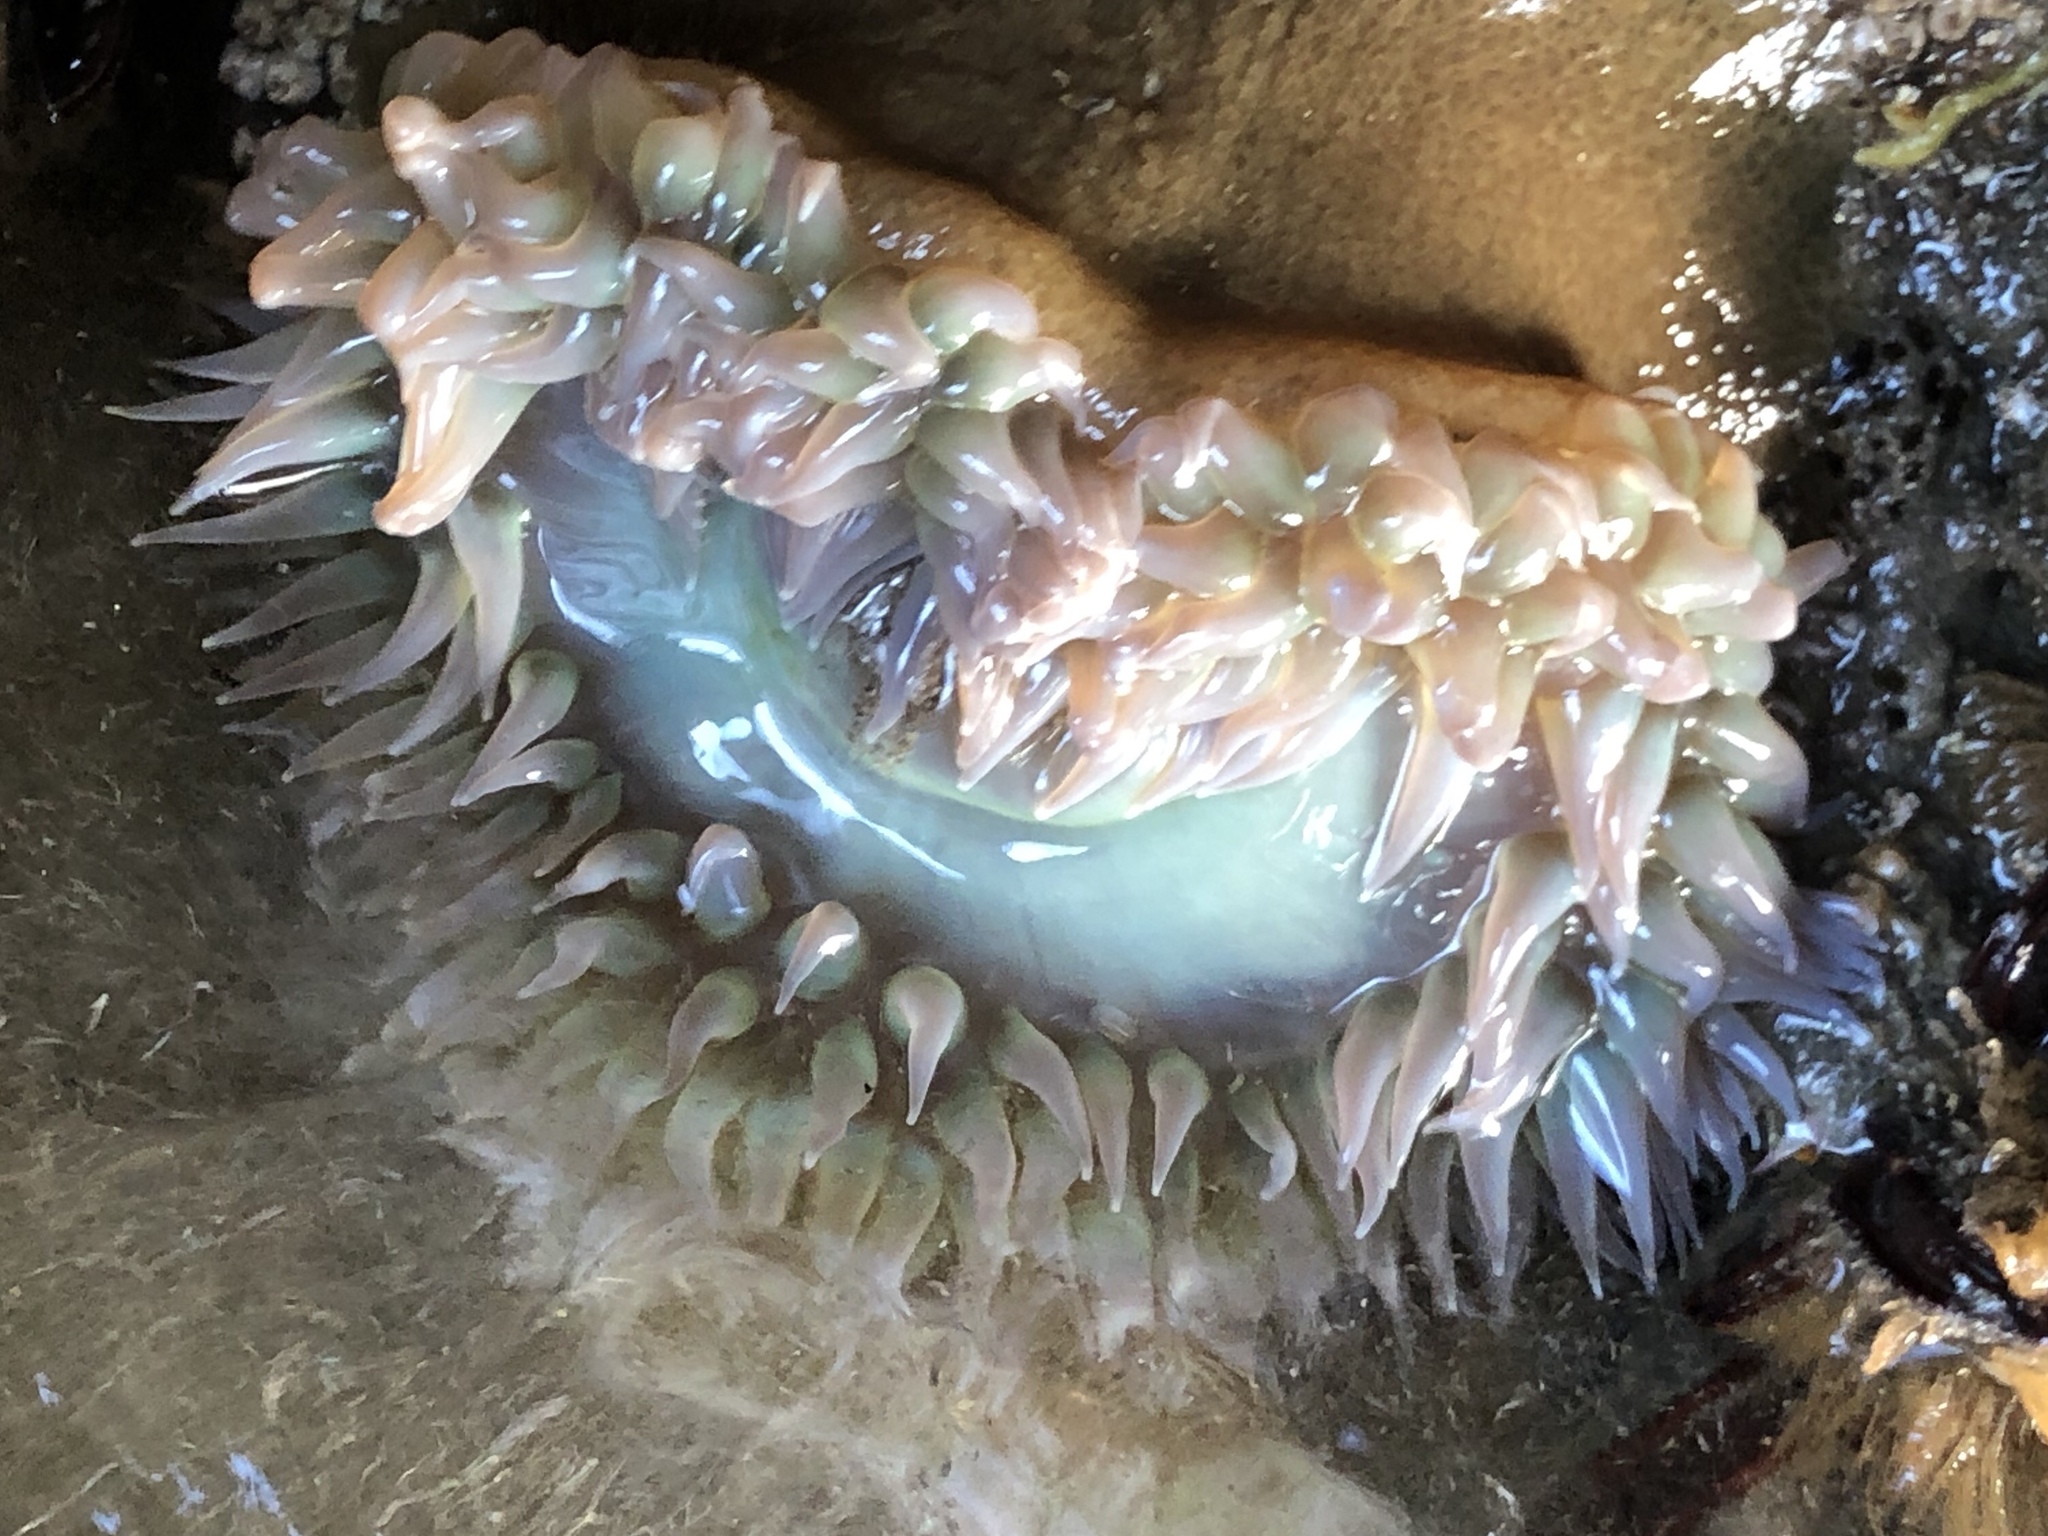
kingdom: Animalia
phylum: Cnidaria
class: Anthozoa
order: Actiniaria
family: Actiniidae
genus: Anthopleura
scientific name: Anthopleura xanthogrammica
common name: Giant green anemone
